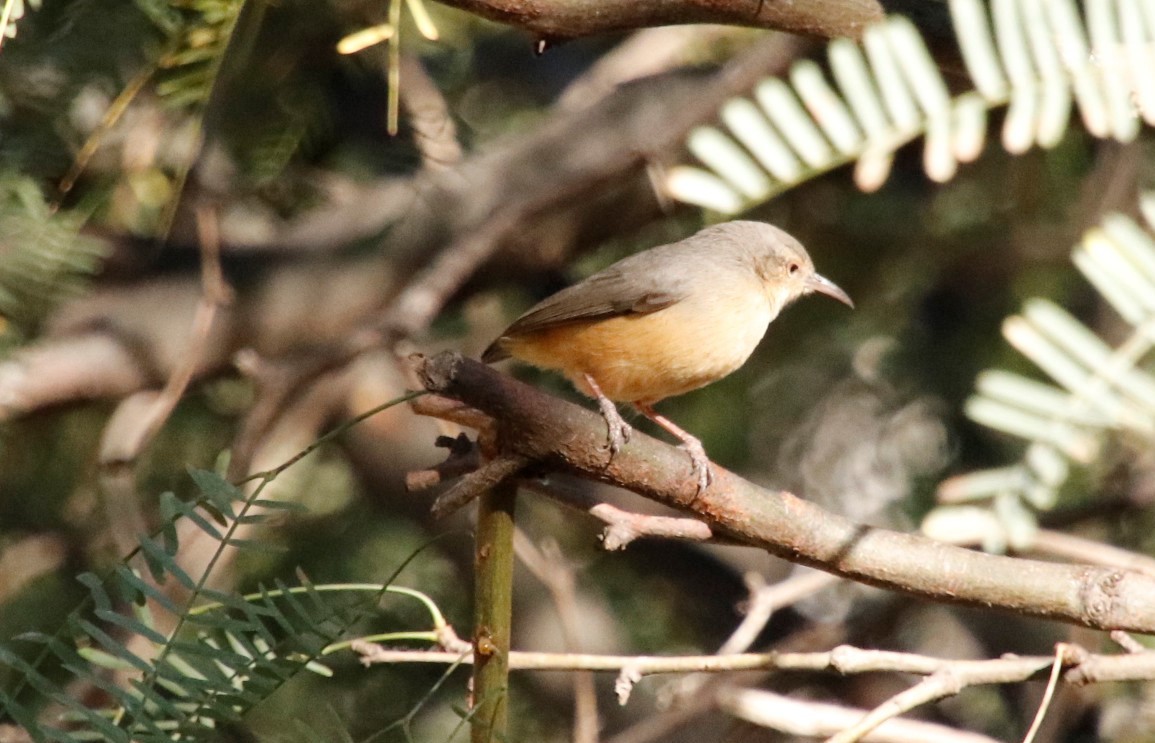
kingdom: Animalia
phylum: Chordata
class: Aves
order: Passeriformes
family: Macrosphenidae
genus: Sylvietta
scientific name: Sylvietta rufescens
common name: Long-billed crombec
